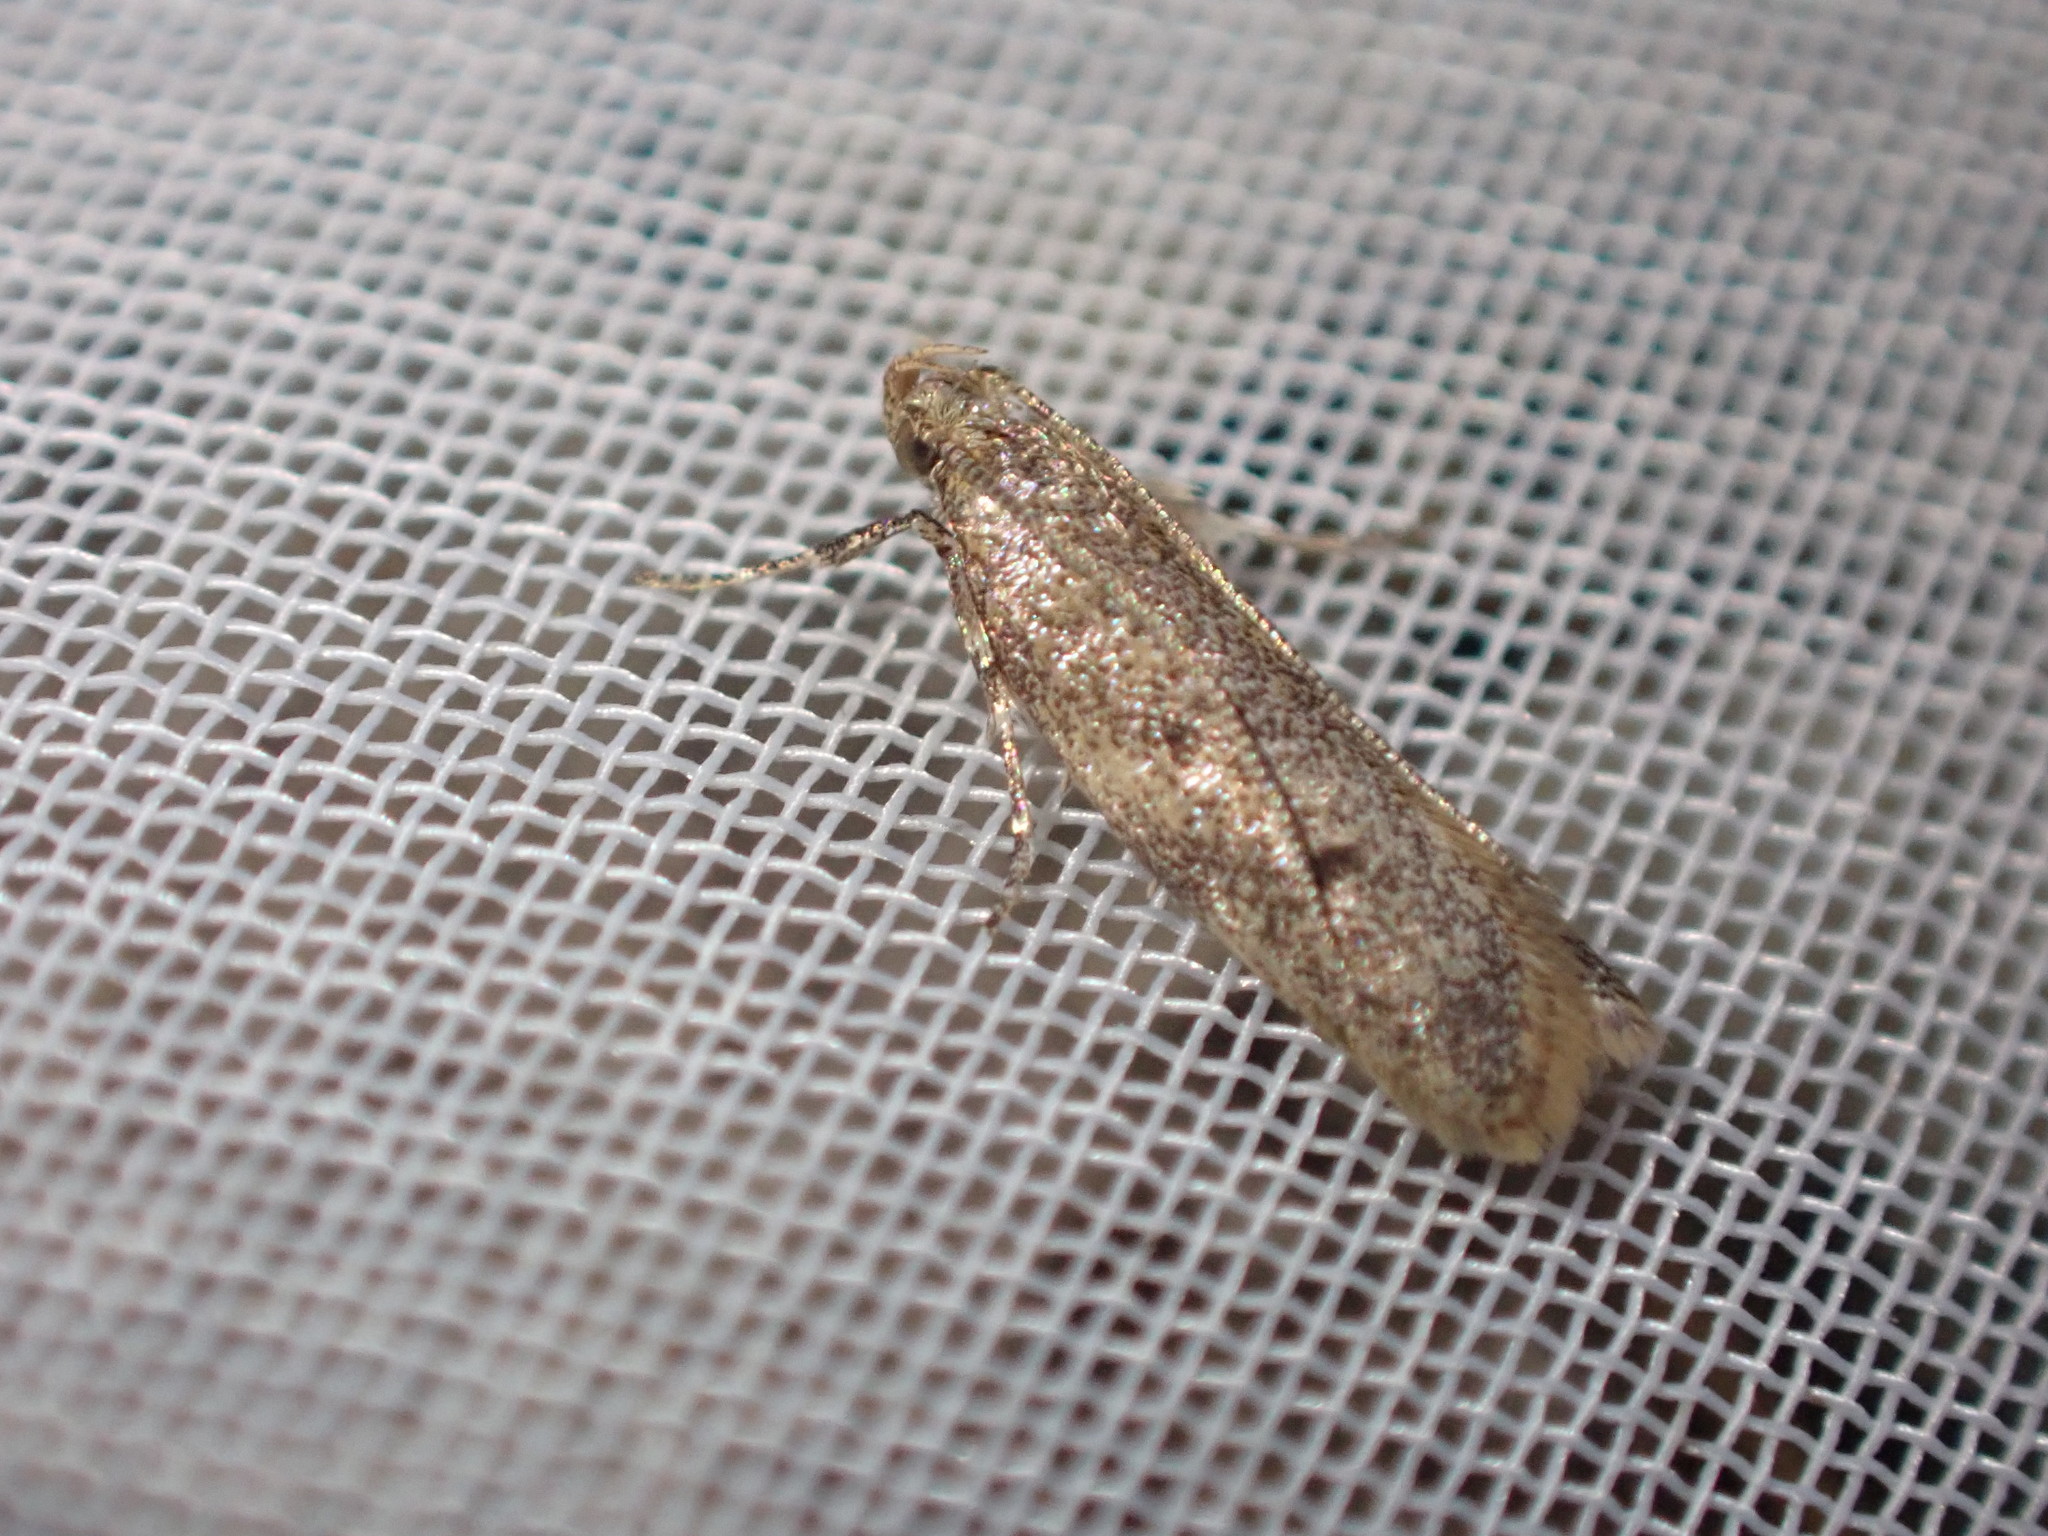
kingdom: Animalia
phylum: Arthropoda
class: Insecta
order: Lepidoptera
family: Oecophoridae
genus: Gymnobathra
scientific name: Gymnobathra tholodella
